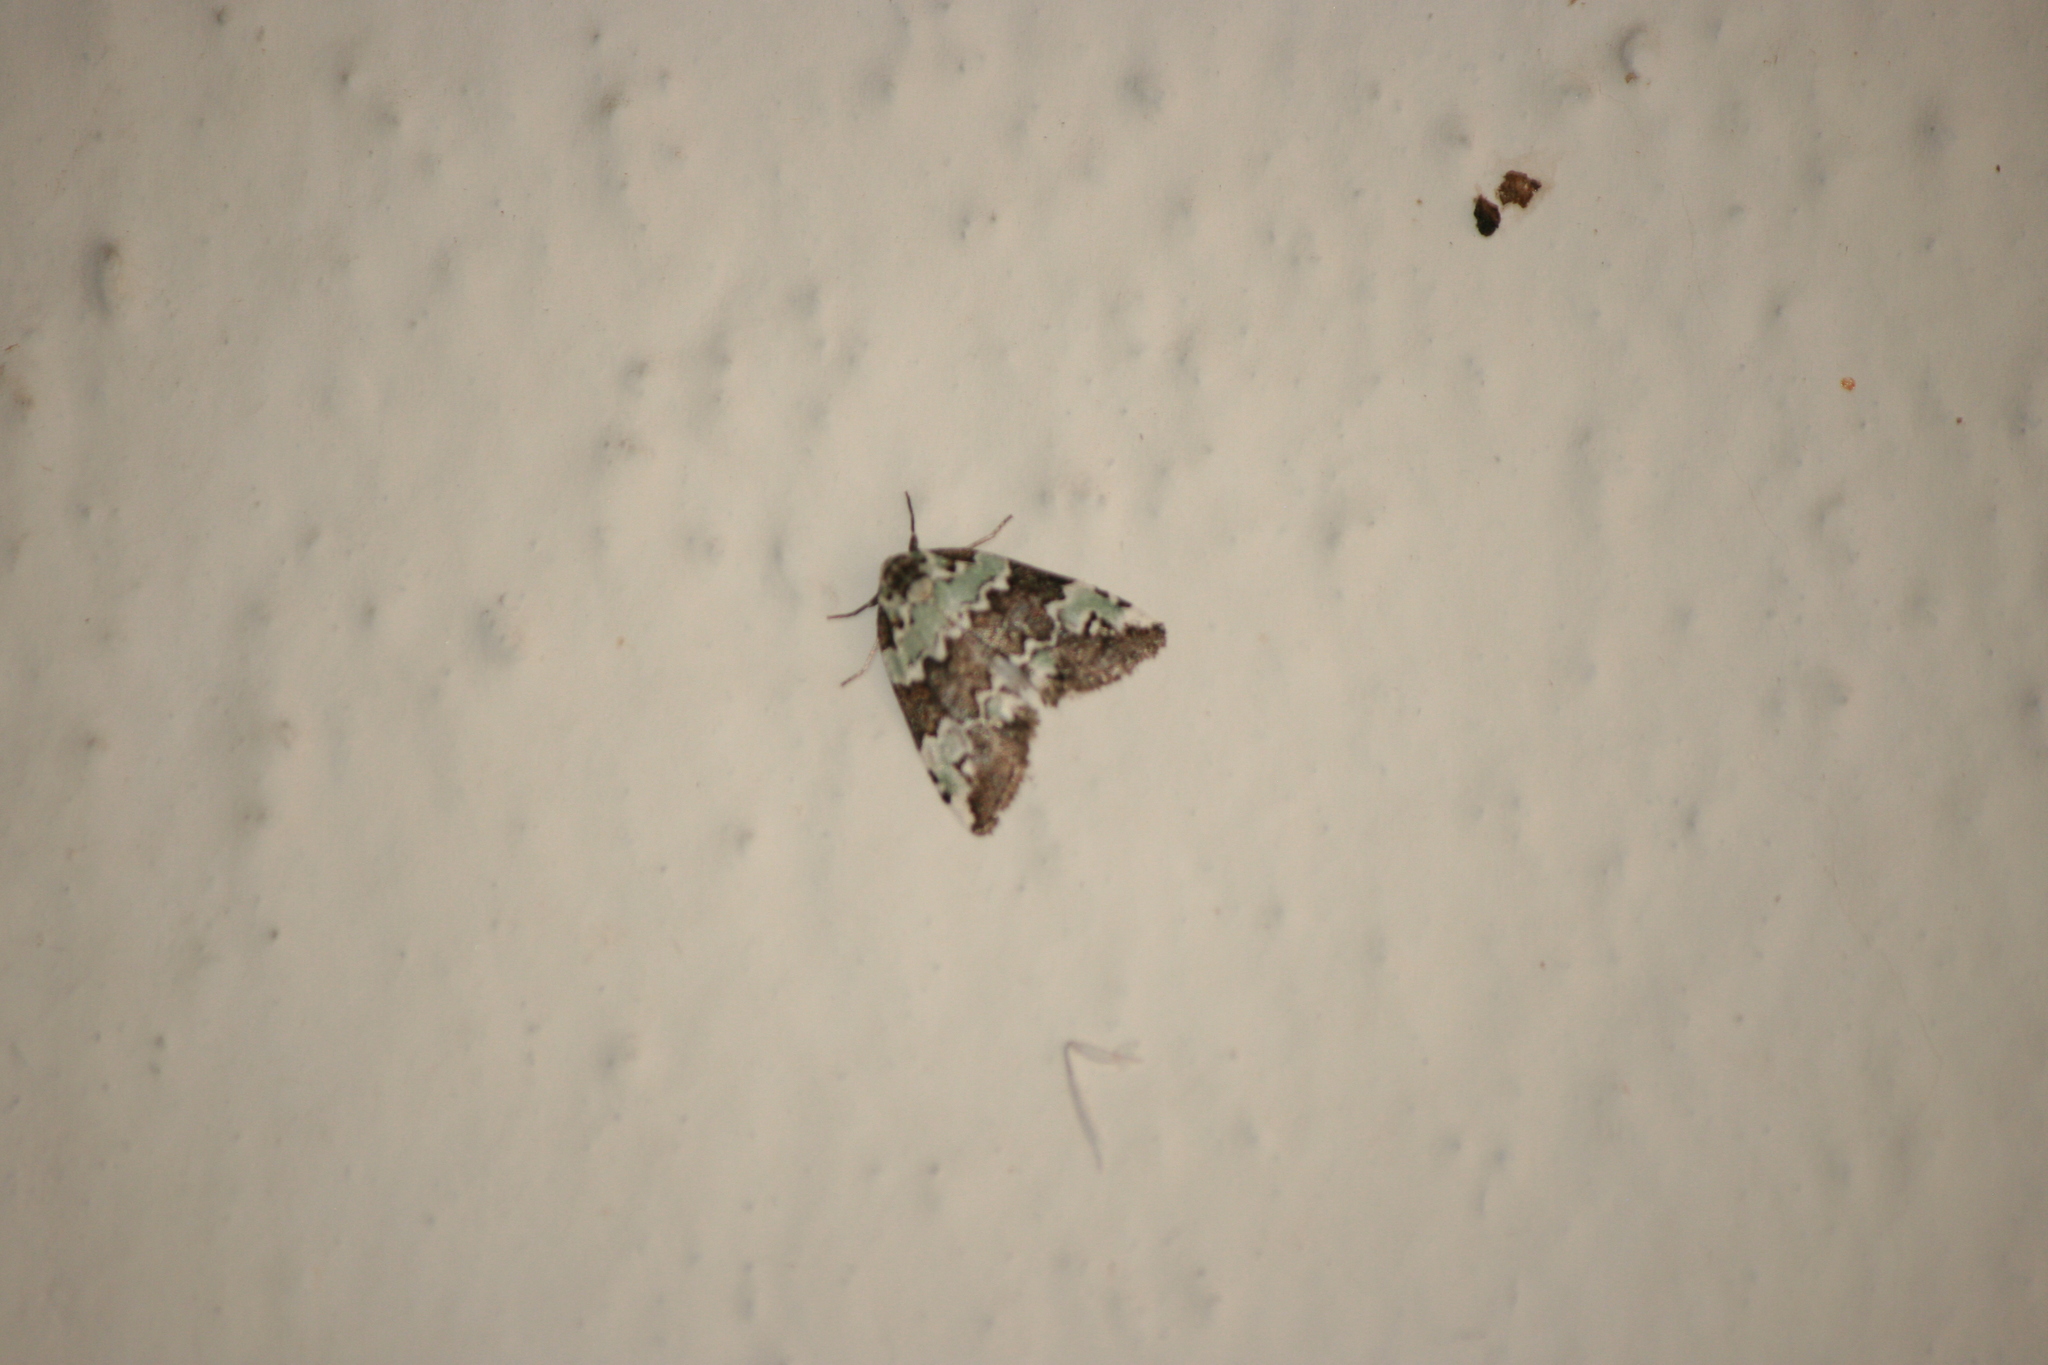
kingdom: Animalia
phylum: Arthropoda
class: Insecta
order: Lepidoptera
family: Nolidae
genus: Afrida
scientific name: Afrida ydatodes
